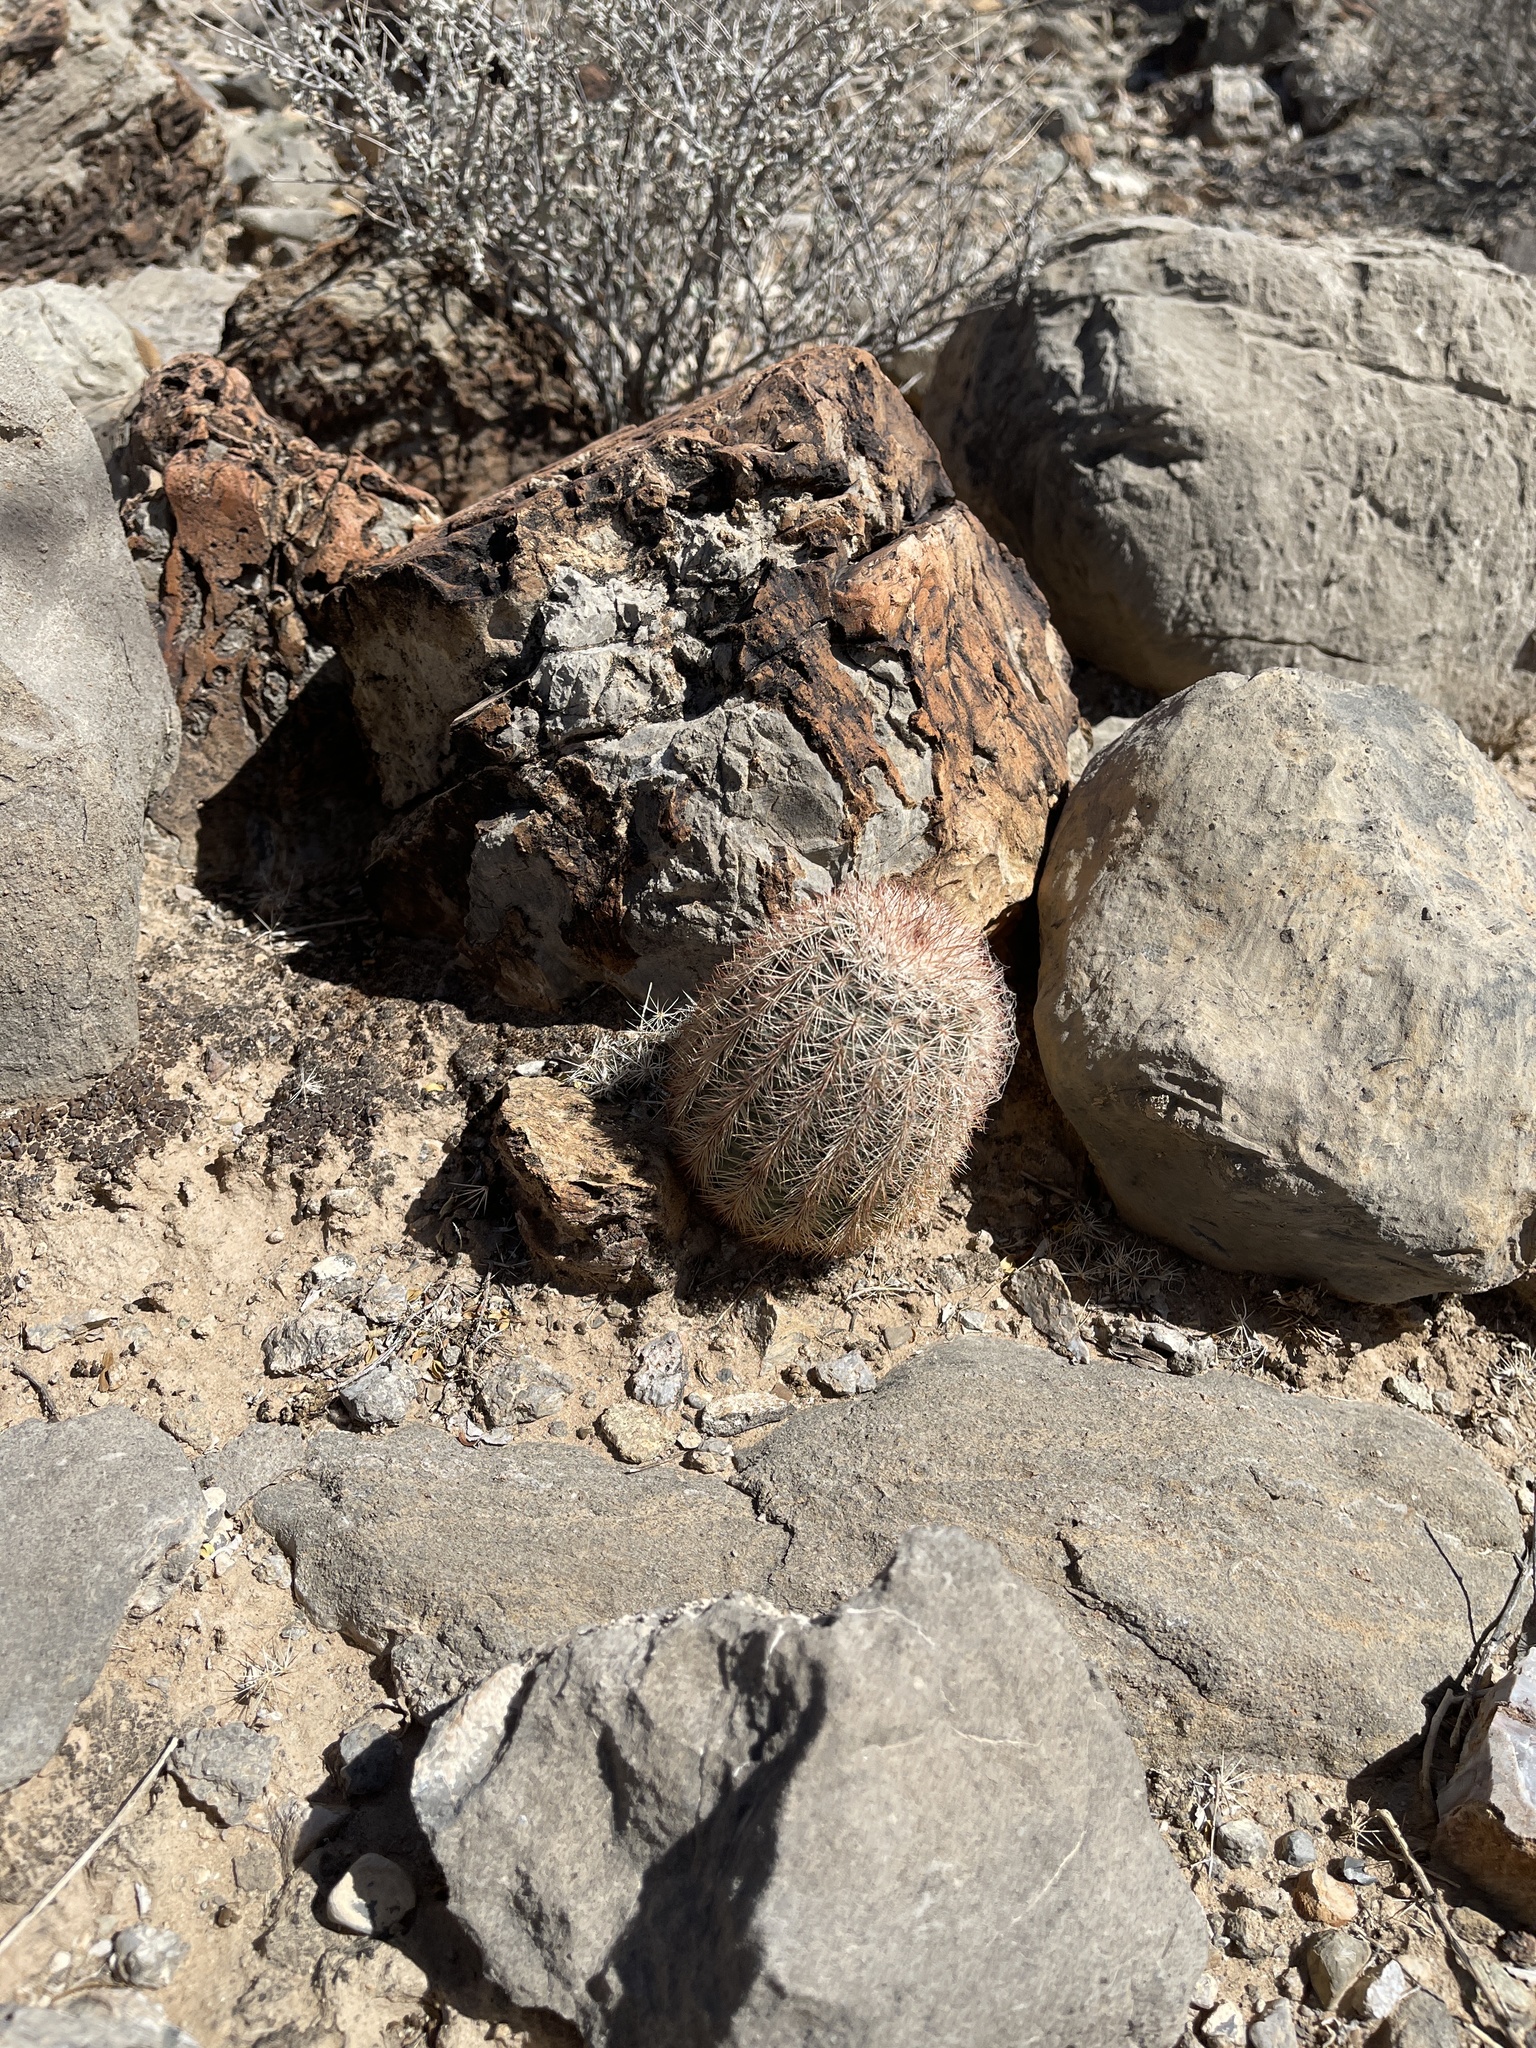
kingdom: Plantae
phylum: Tracheophyta
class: Magnoliopsida
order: Caryophyllales
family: Cactaceae
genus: Echinocereus
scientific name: Echinocereus dasyacanthus
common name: Spiny hedgehog cactus
